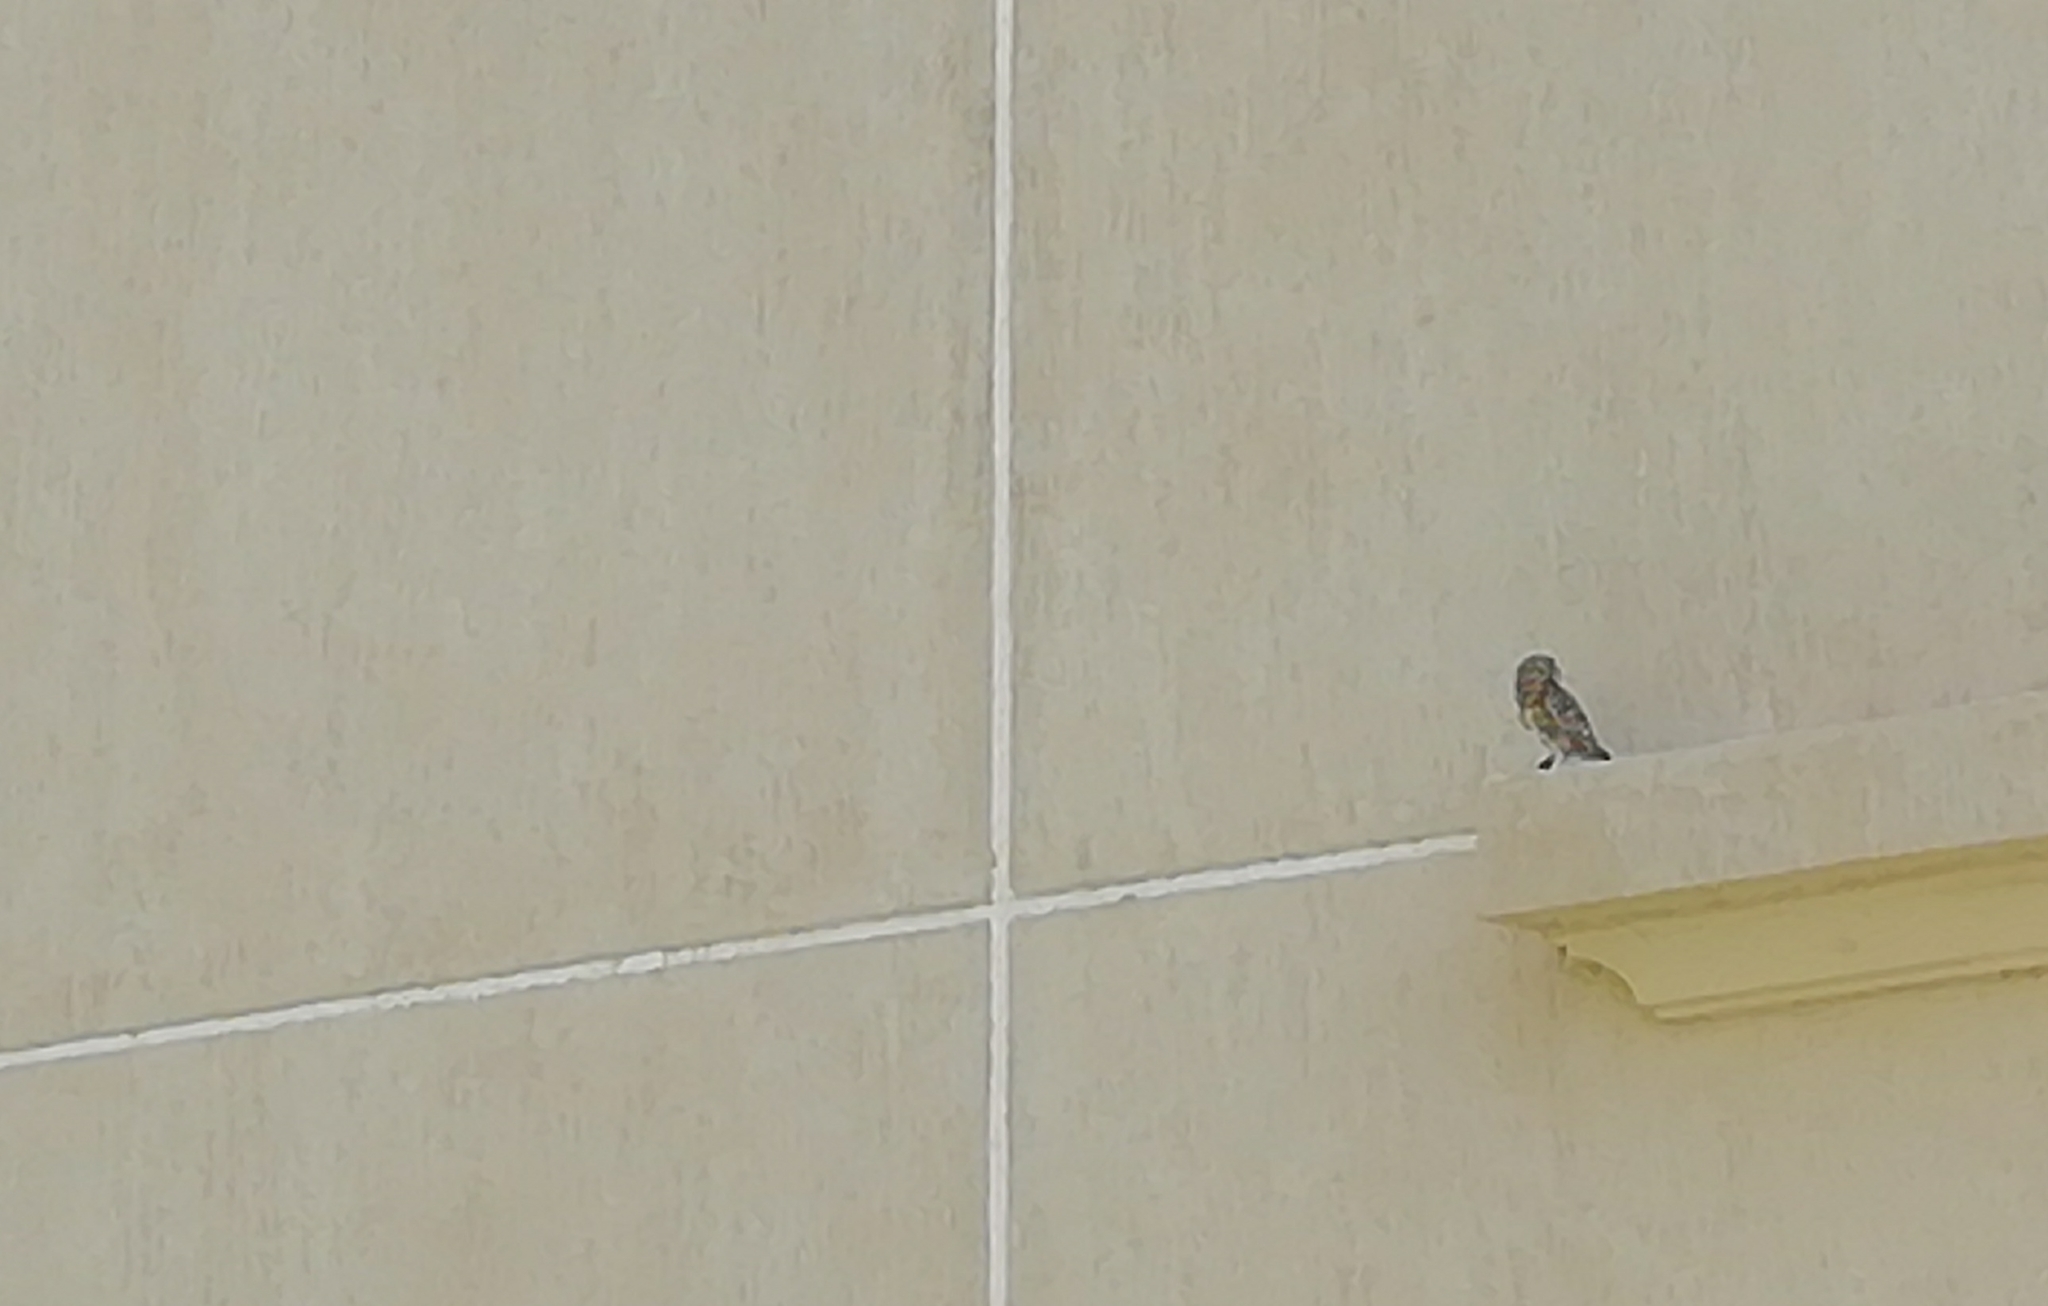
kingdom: Animalia
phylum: Chordata
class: Aves
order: Strigiformes
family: Strigidae
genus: Athene
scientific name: Athene noctua
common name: Little owl
